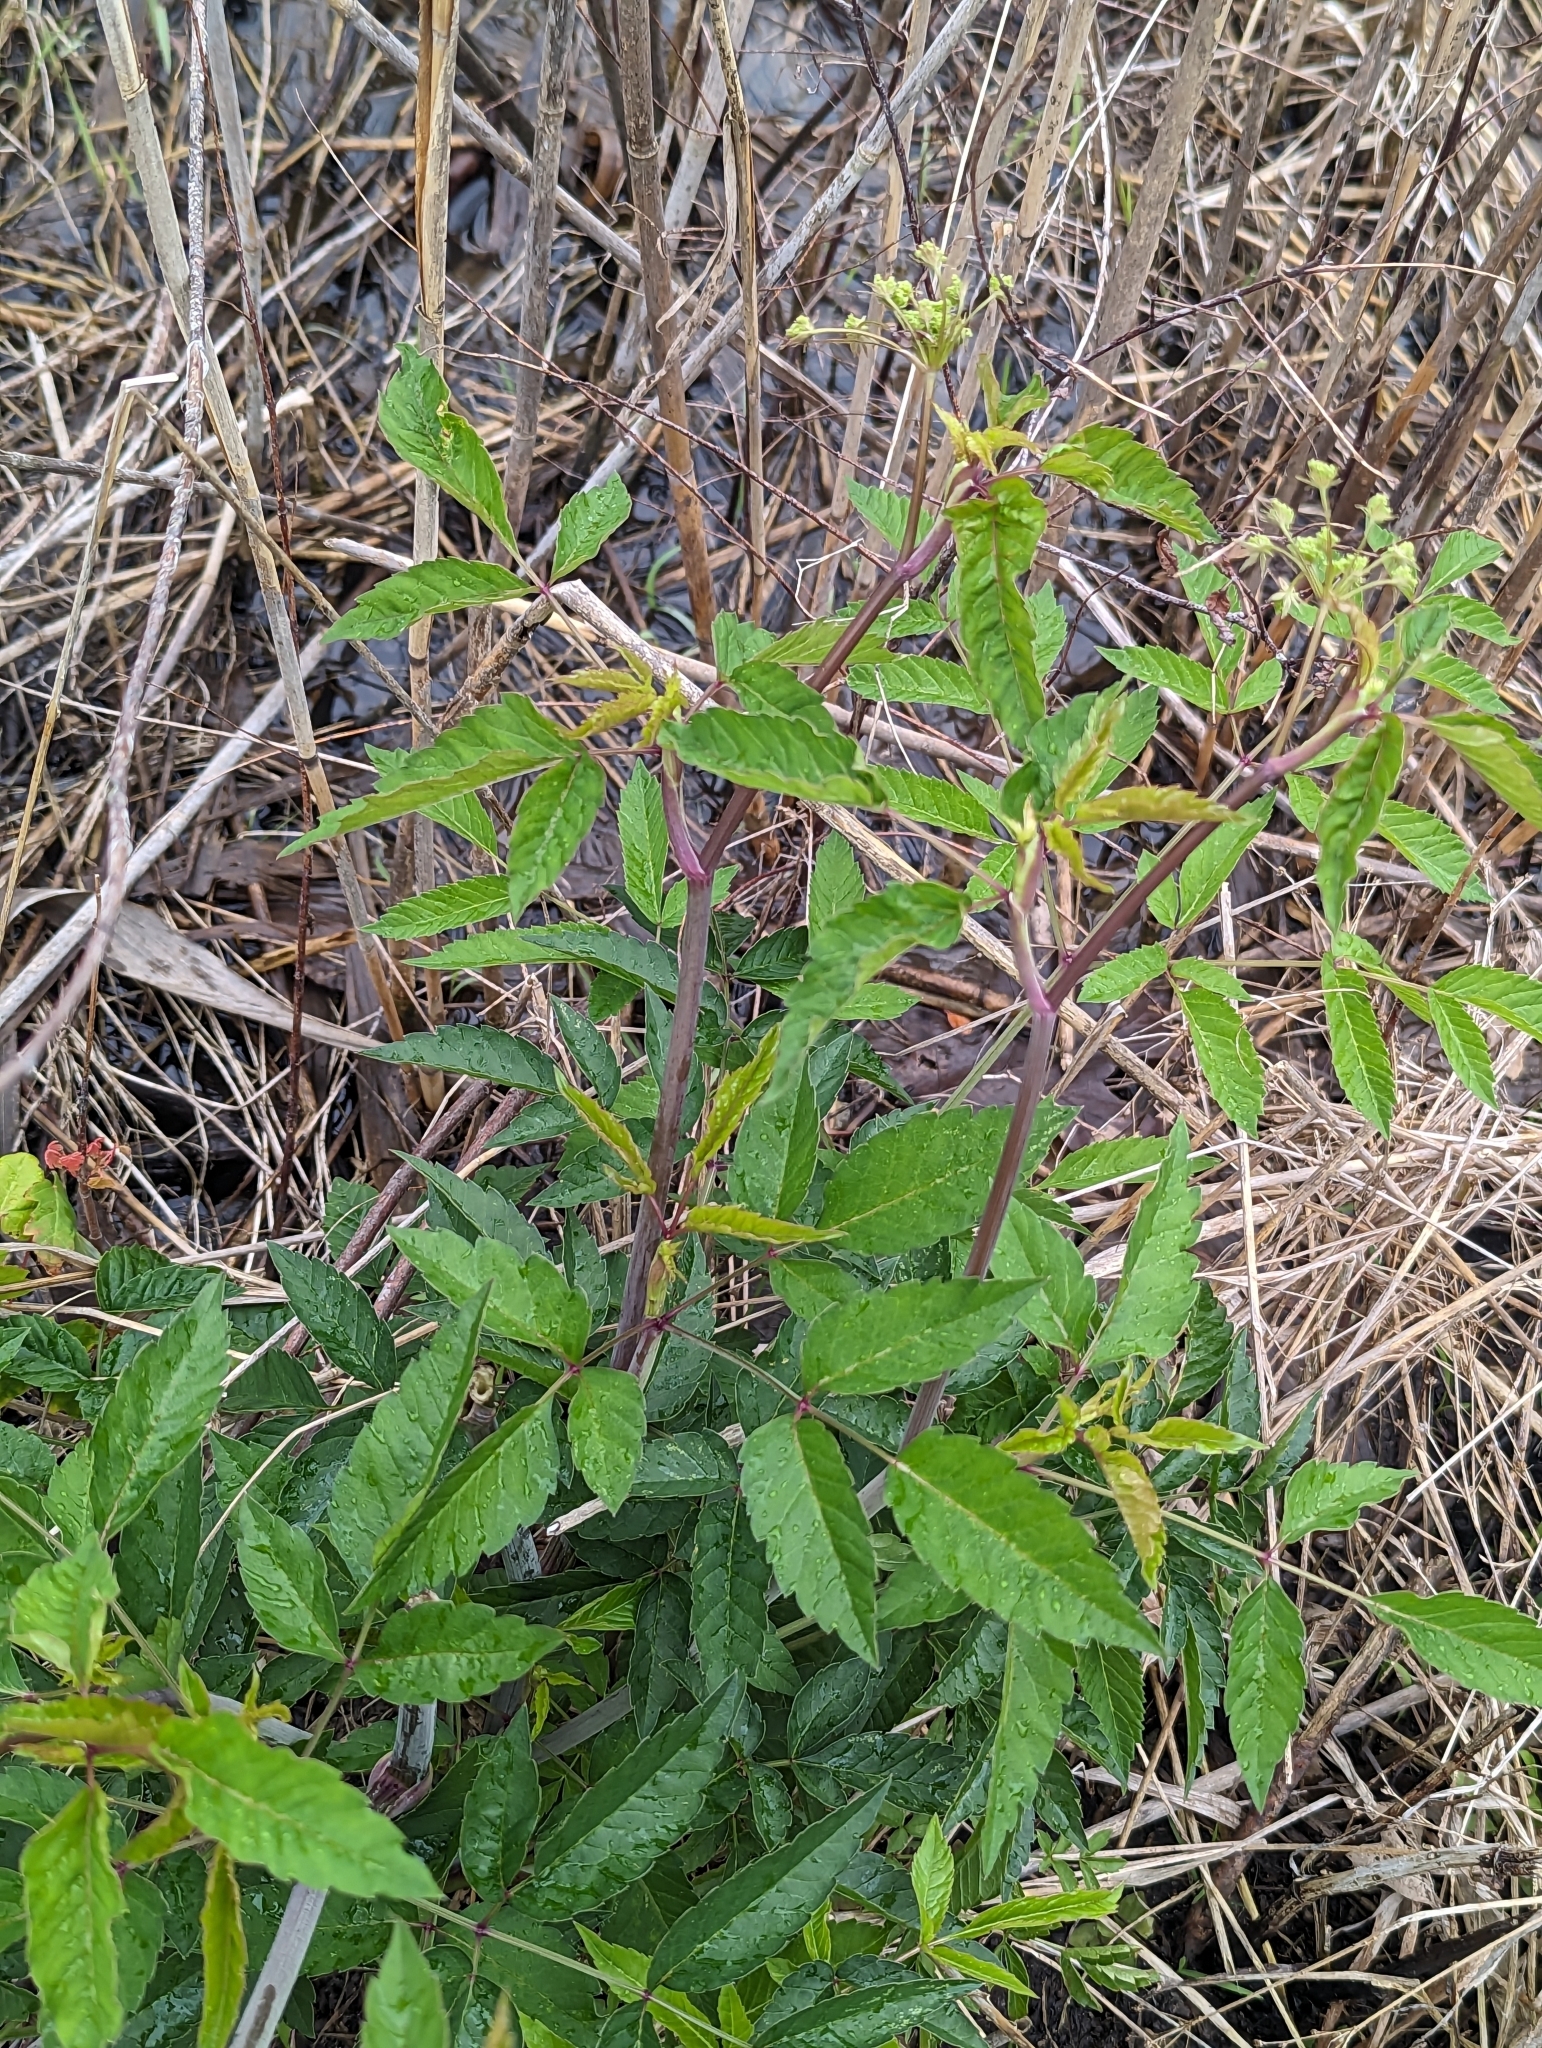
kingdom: Plantae
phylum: Tracheophyta
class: Magnoliopsida
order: Apiales
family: Apiaceae
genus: Cicuta
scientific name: Cicuta maculata
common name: Spotted cowbane
